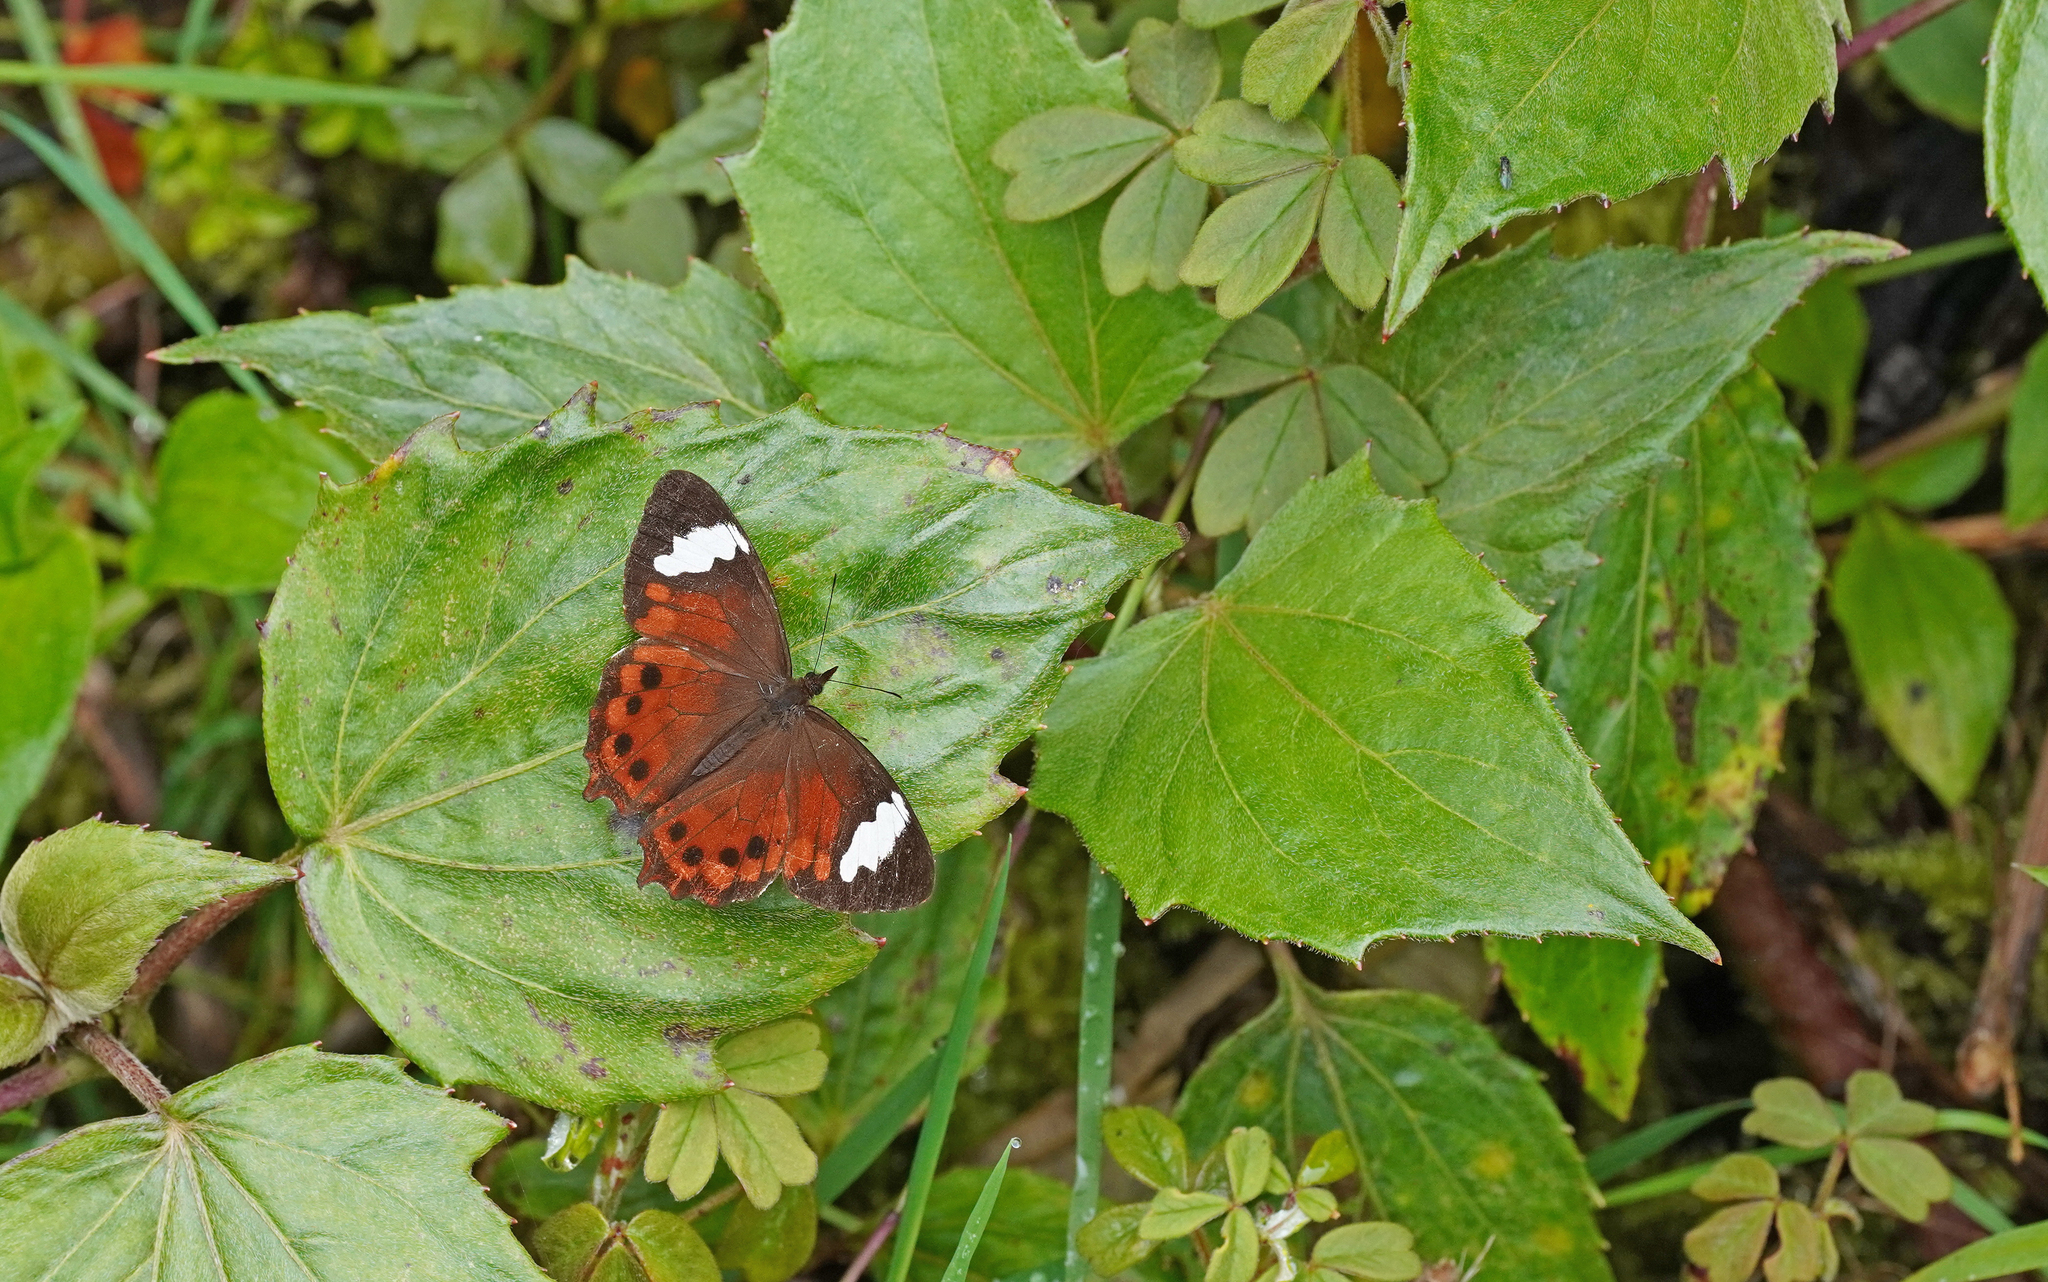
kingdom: Animalia
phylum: Arthropoda
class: Insecta
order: Lepidoptera
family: Nymphalidae
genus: Lasiophila
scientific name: Lasiophila prosymna
